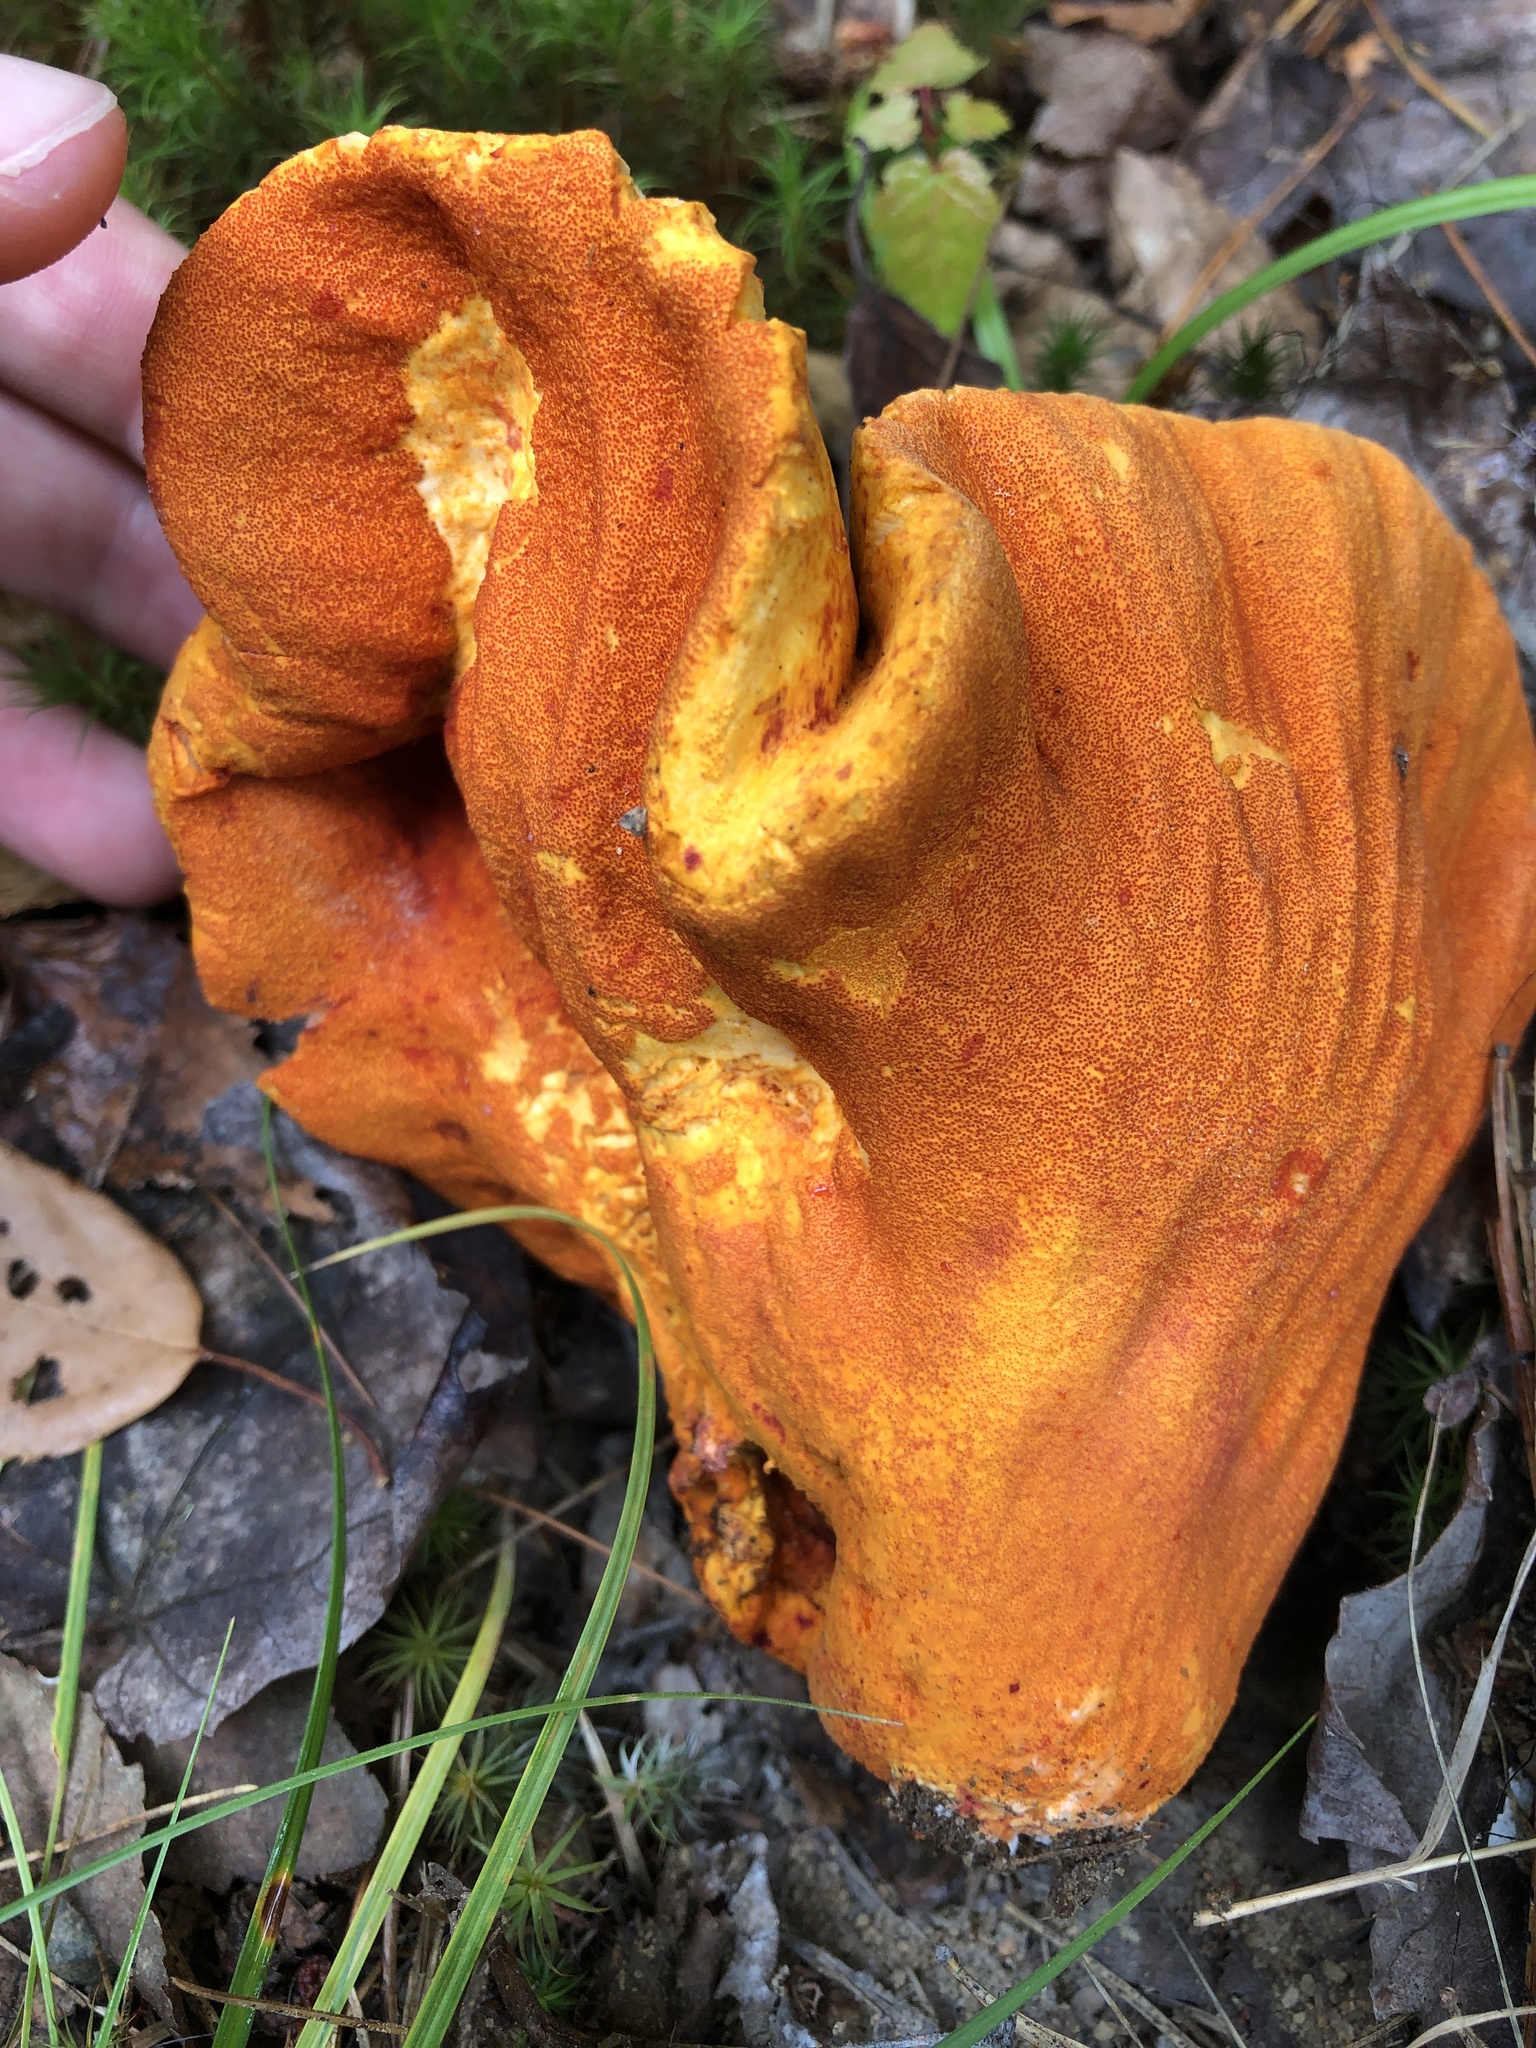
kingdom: Fungi
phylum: Ascomycota
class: Sordariomycetes
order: Hypocreales
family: Hypocreaceae
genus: Hypomyces
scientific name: Hypomyces lactifluorum
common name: Lobster mushroom
